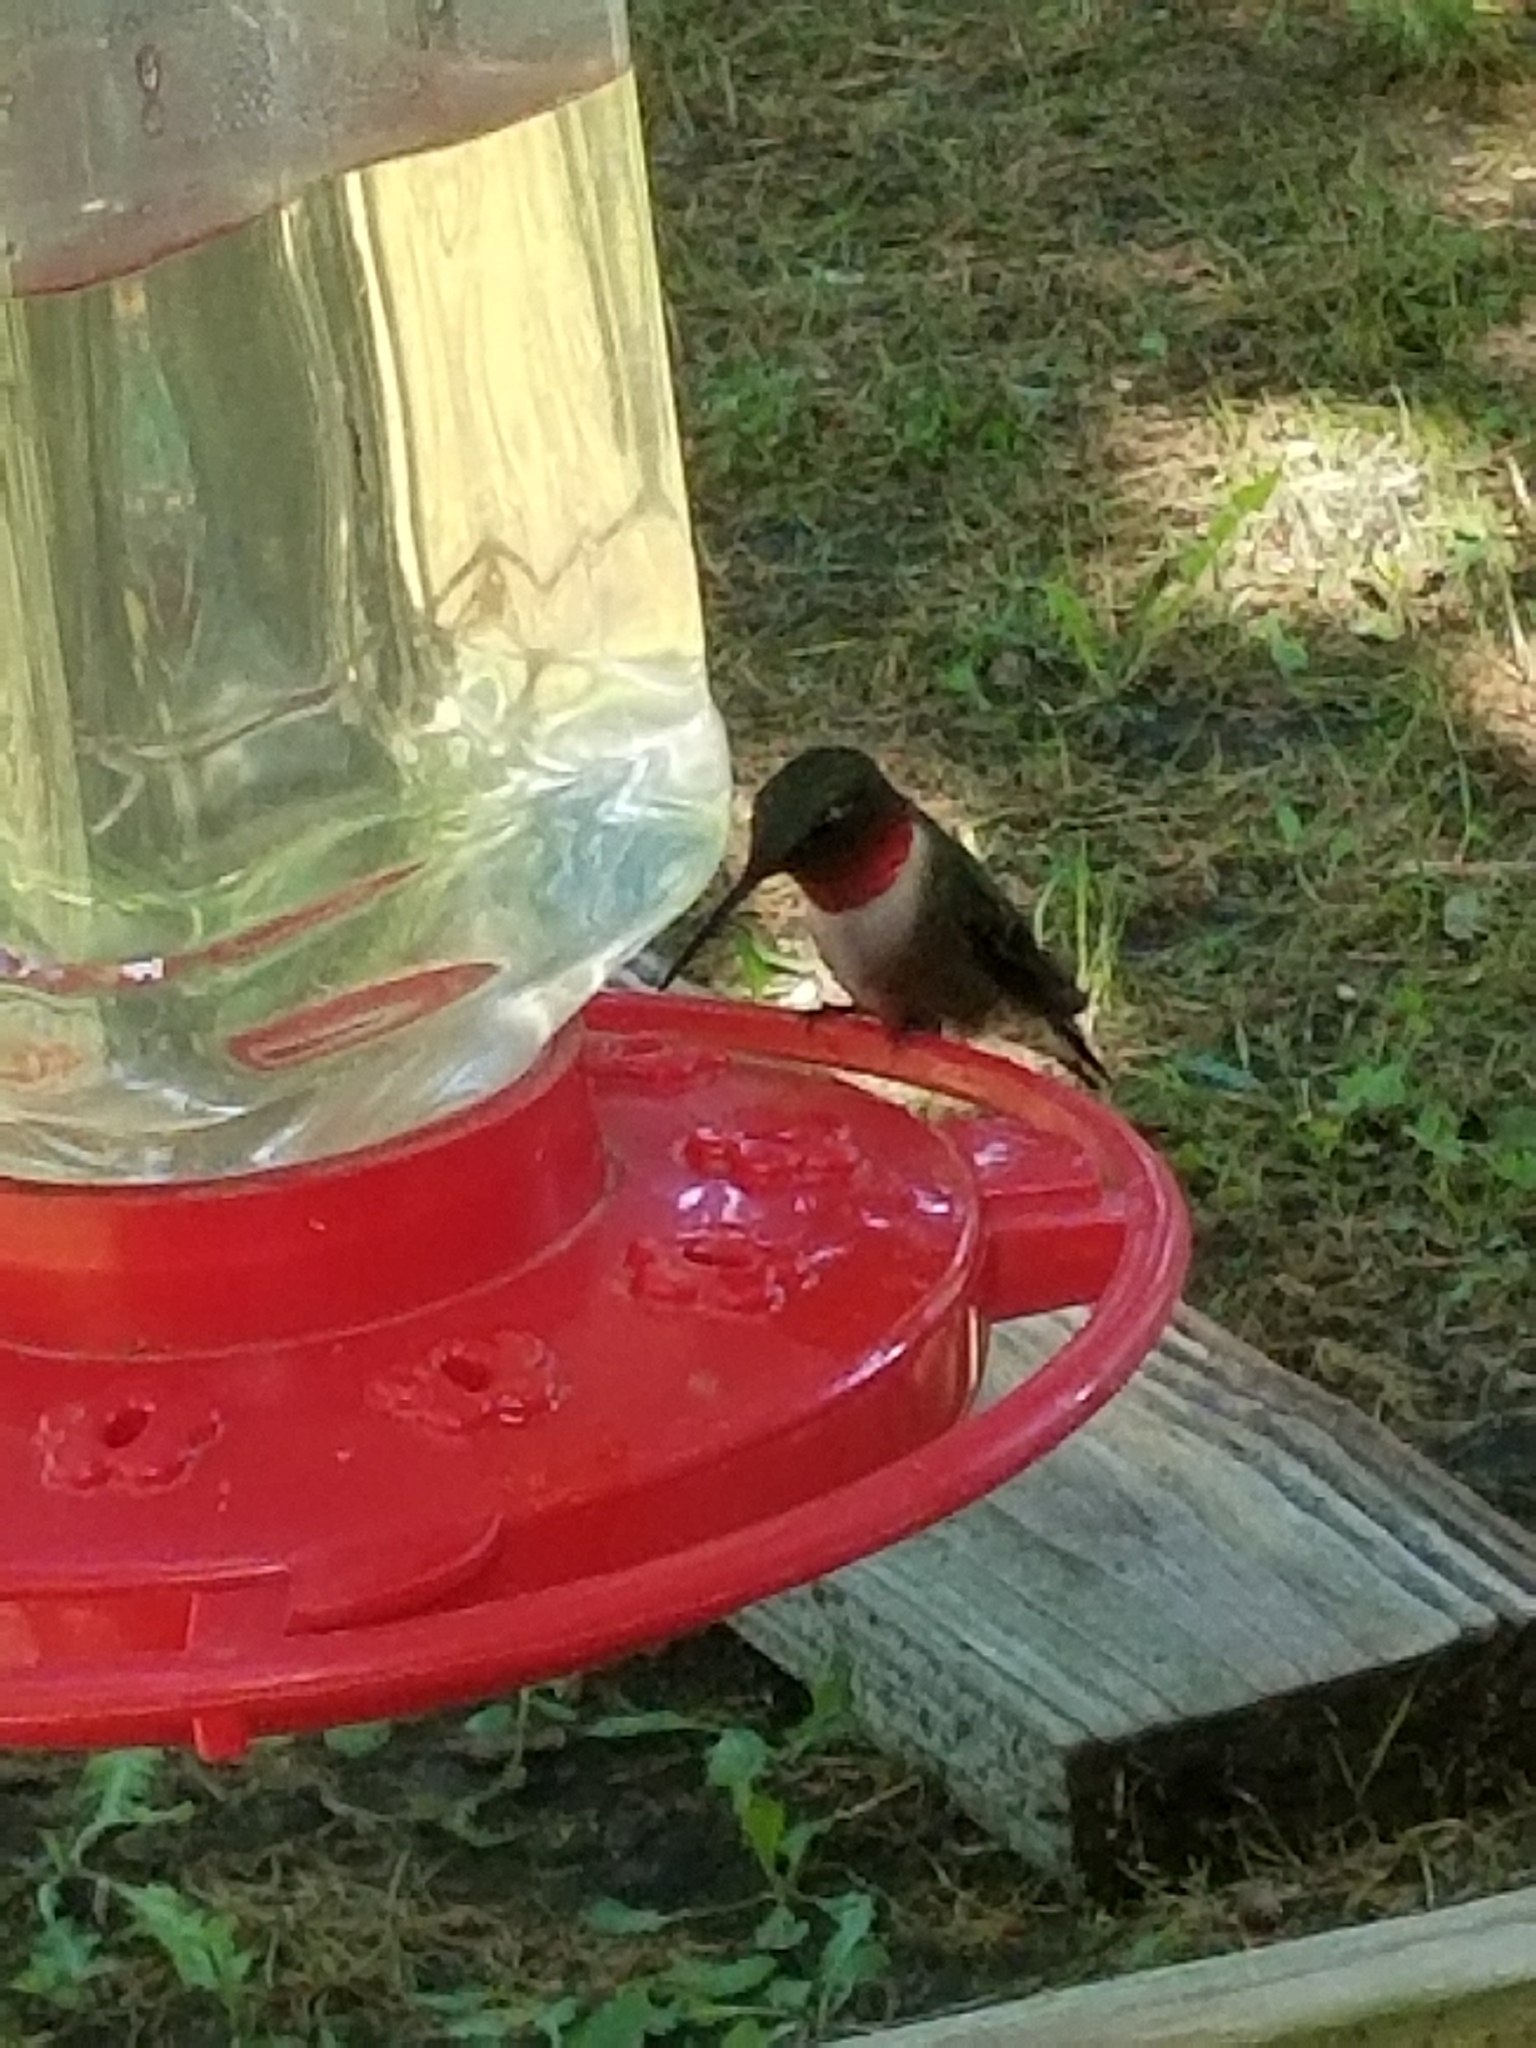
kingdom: Animalia
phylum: Chordata
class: Aves
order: Apodiformes
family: Trochilidae
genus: Archilochus
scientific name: Archilochus colubris
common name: Ruby-throated hummingbird
